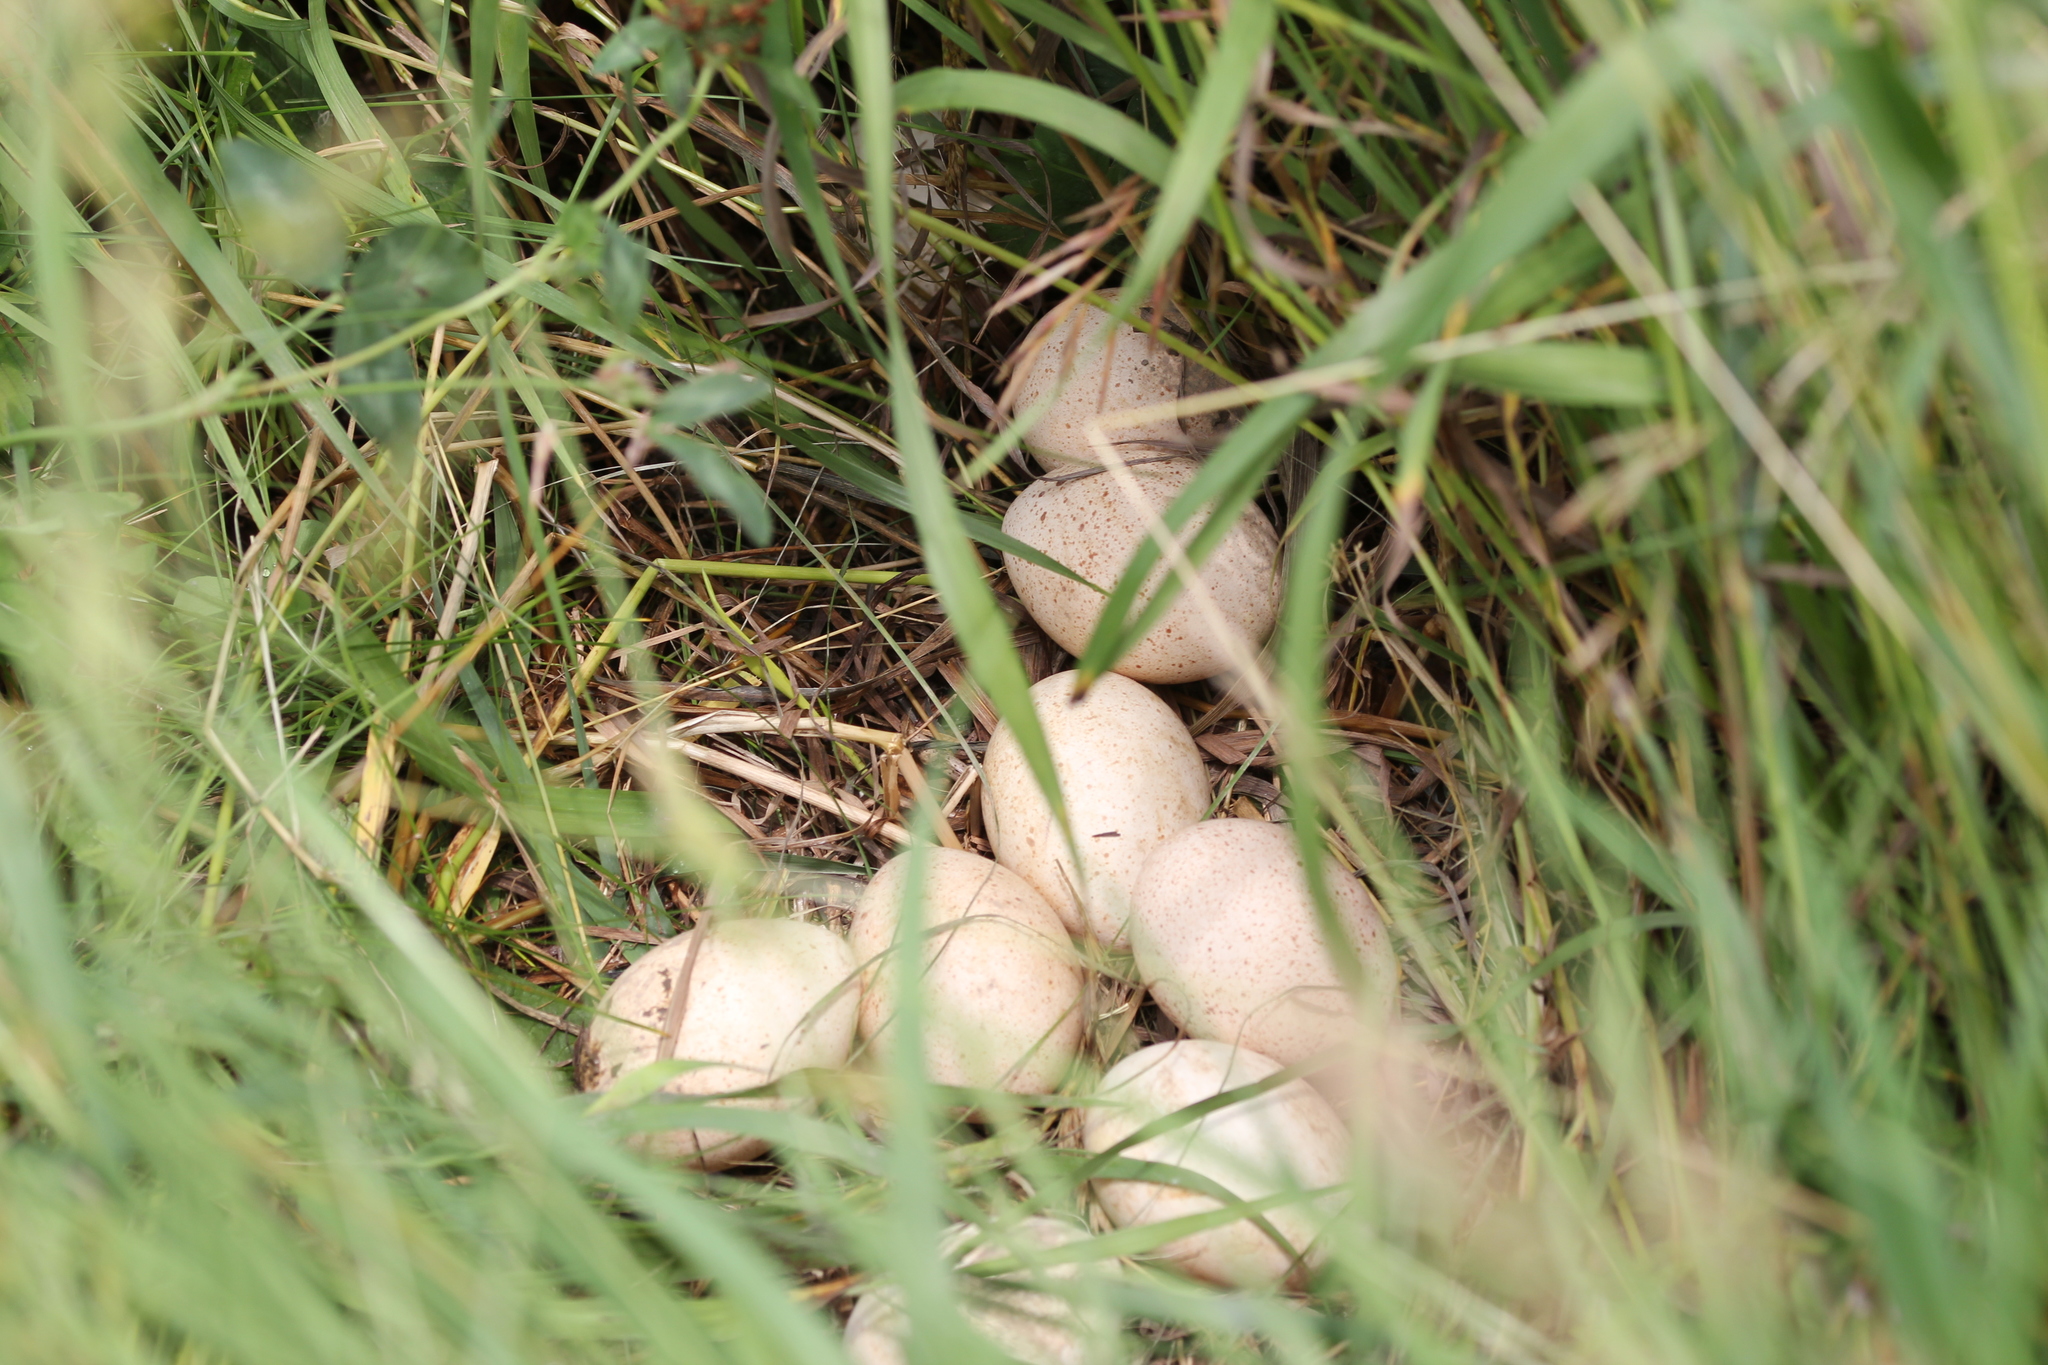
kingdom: Animalia
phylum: Chordata
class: Aves
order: Galliformes
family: Phasianidae
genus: Meleagris
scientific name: Meleagris gallopavo
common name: Wild turkey
